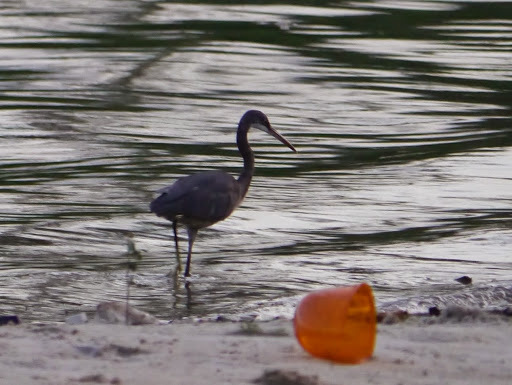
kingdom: Animalia
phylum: Chordata
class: Aves
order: Pelecaniformes
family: Ardeidae
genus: Egretta
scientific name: Egretta gularis
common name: Western reef-heron
